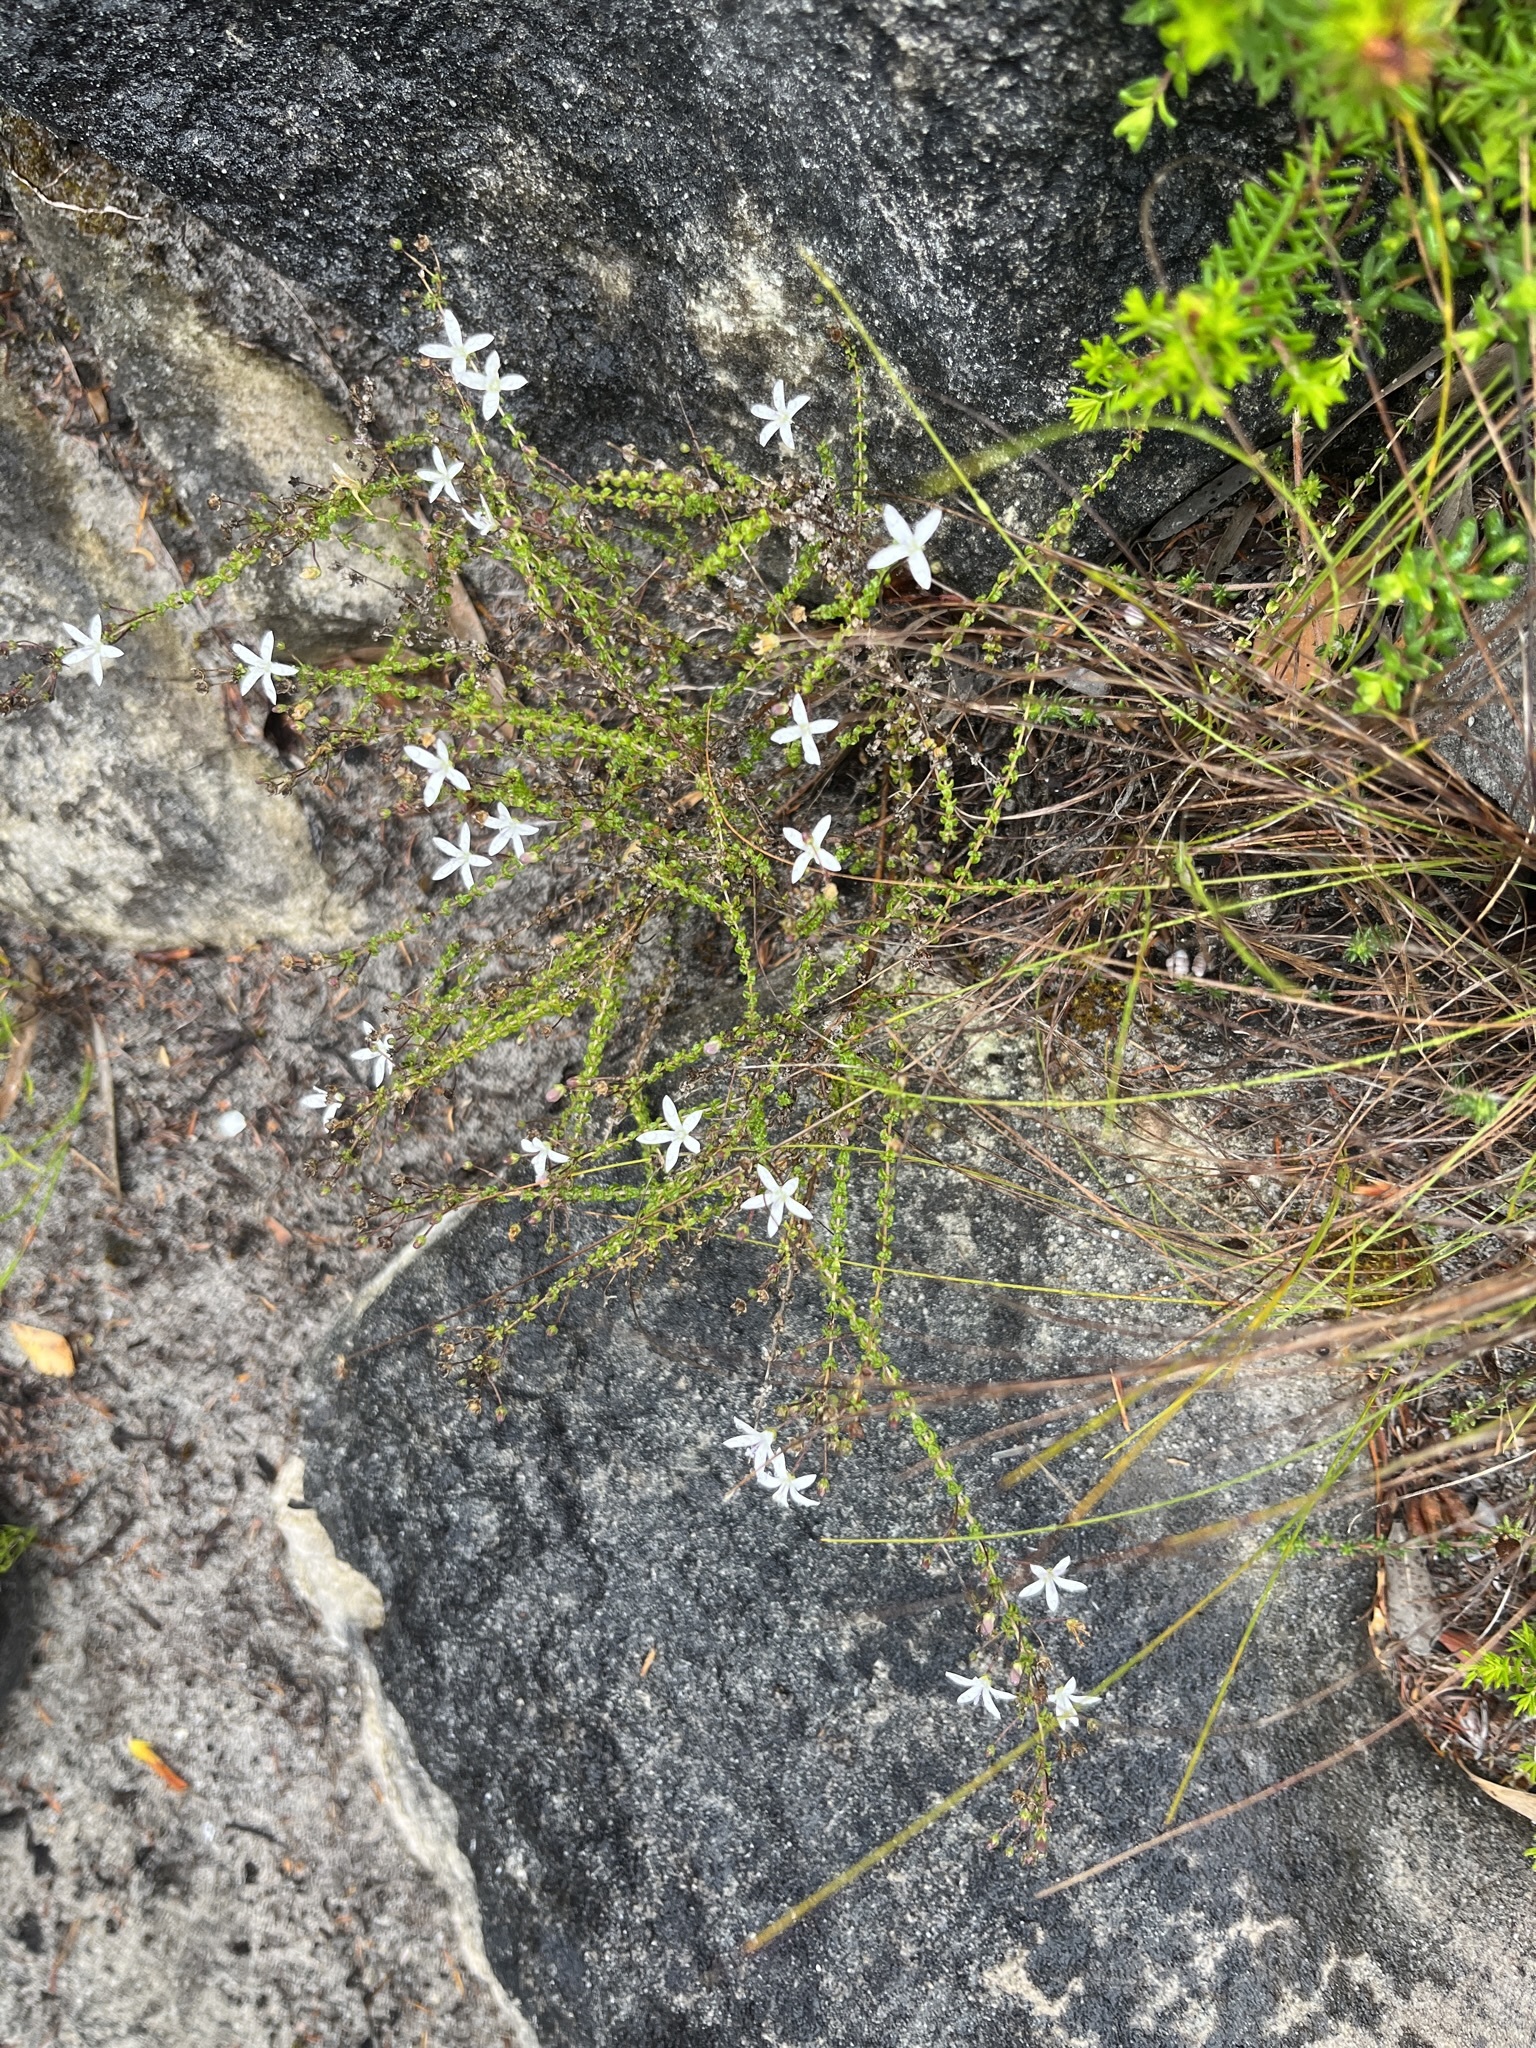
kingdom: Plantae
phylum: Tracheophyta
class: Magnoliopsida
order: Asterales
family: Campanulaceae
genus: Wahlenbergia
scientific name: Wahlenbergia tenella
